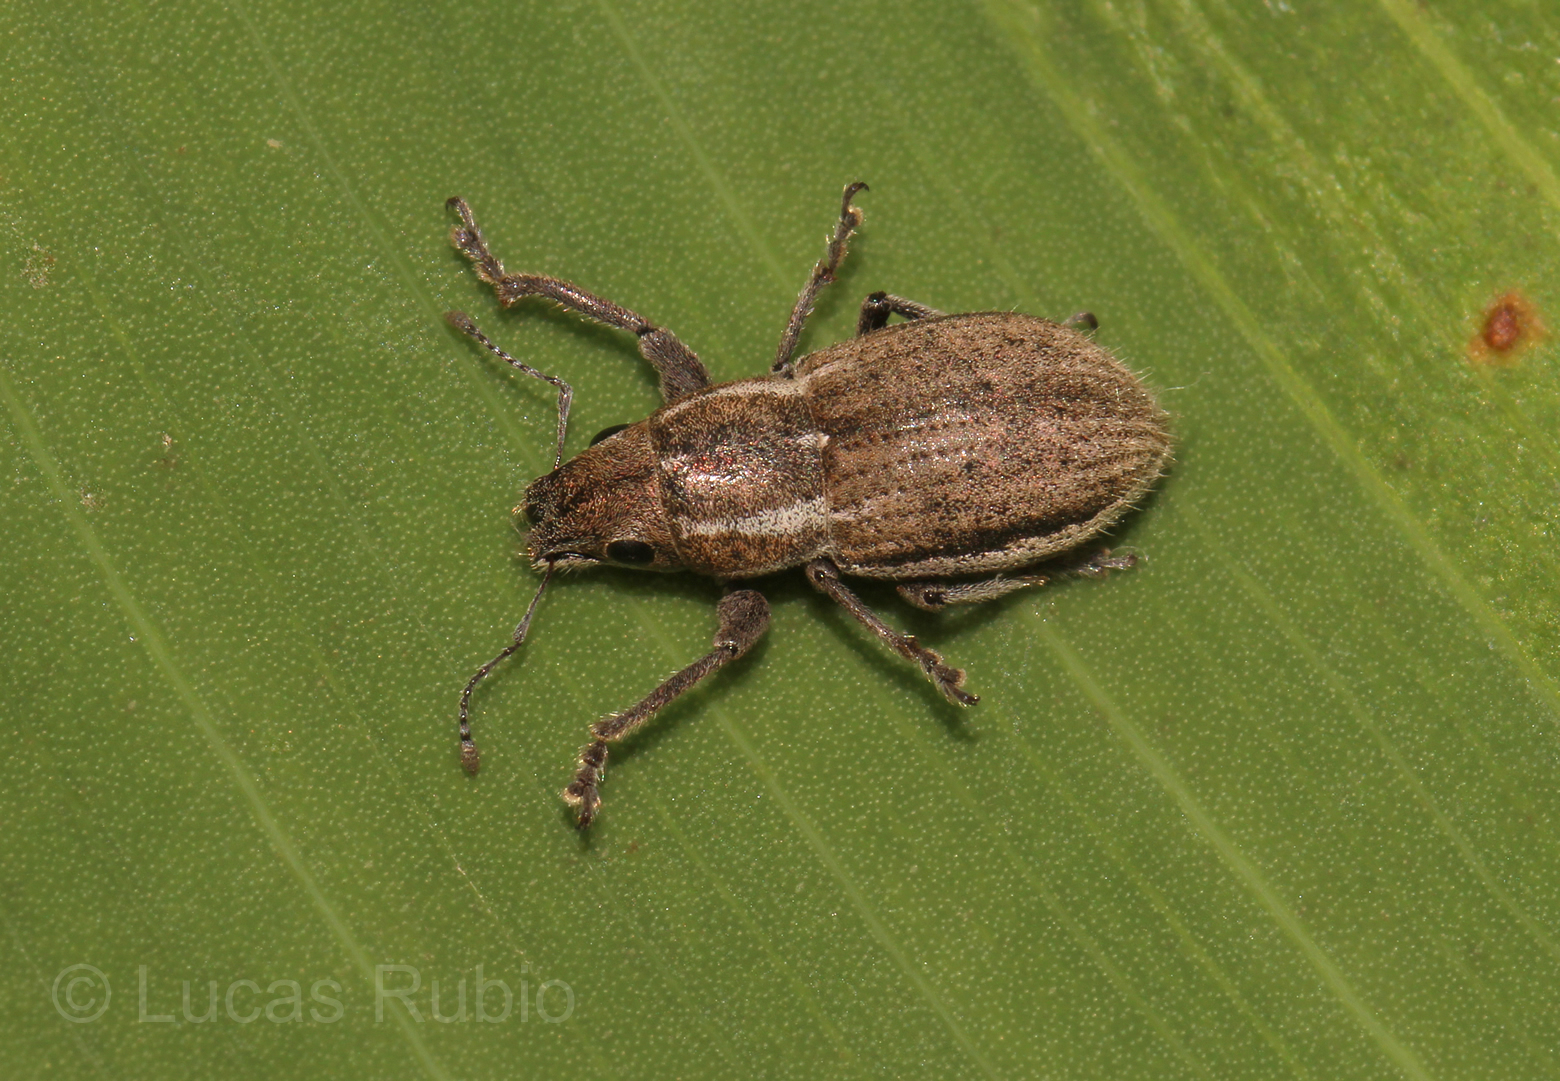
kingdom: Animalia
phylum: Arthropoda
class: Insecta
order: Coleoptera
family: Curculionidae
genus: Naupactus
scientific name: Naupactus peregrinus
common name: Whitefringed beetle
